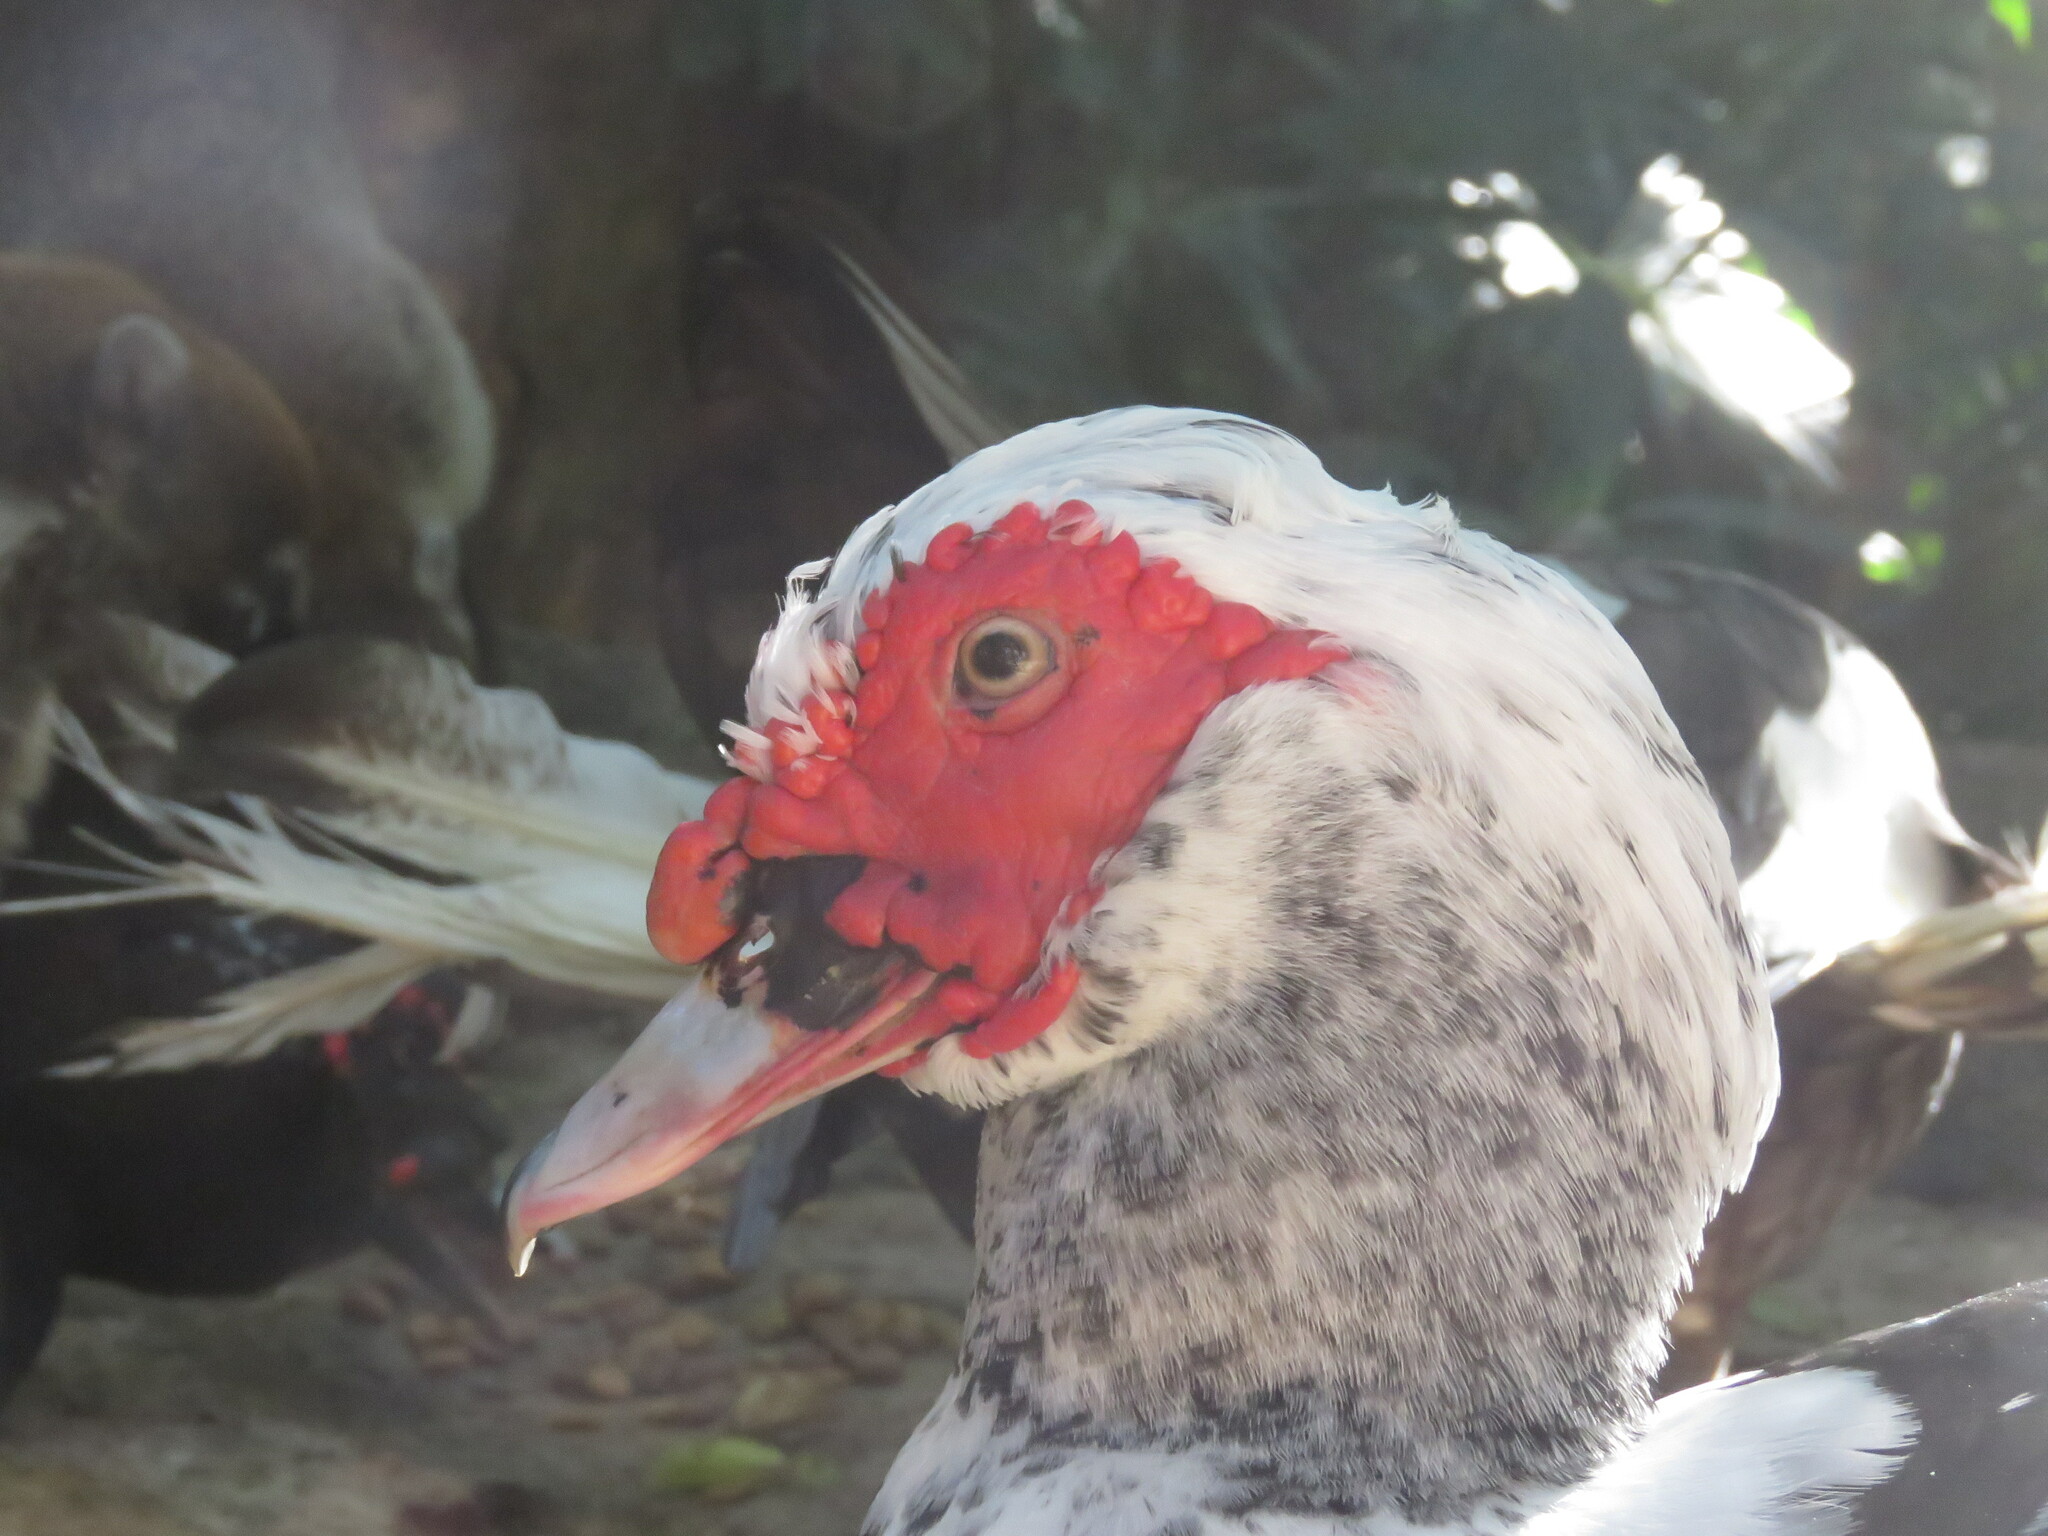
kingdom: Animalia
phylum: Chordata
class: Aves
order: Anseriformes
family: Anatidae
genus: Cairina
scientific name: Cairina moschata
